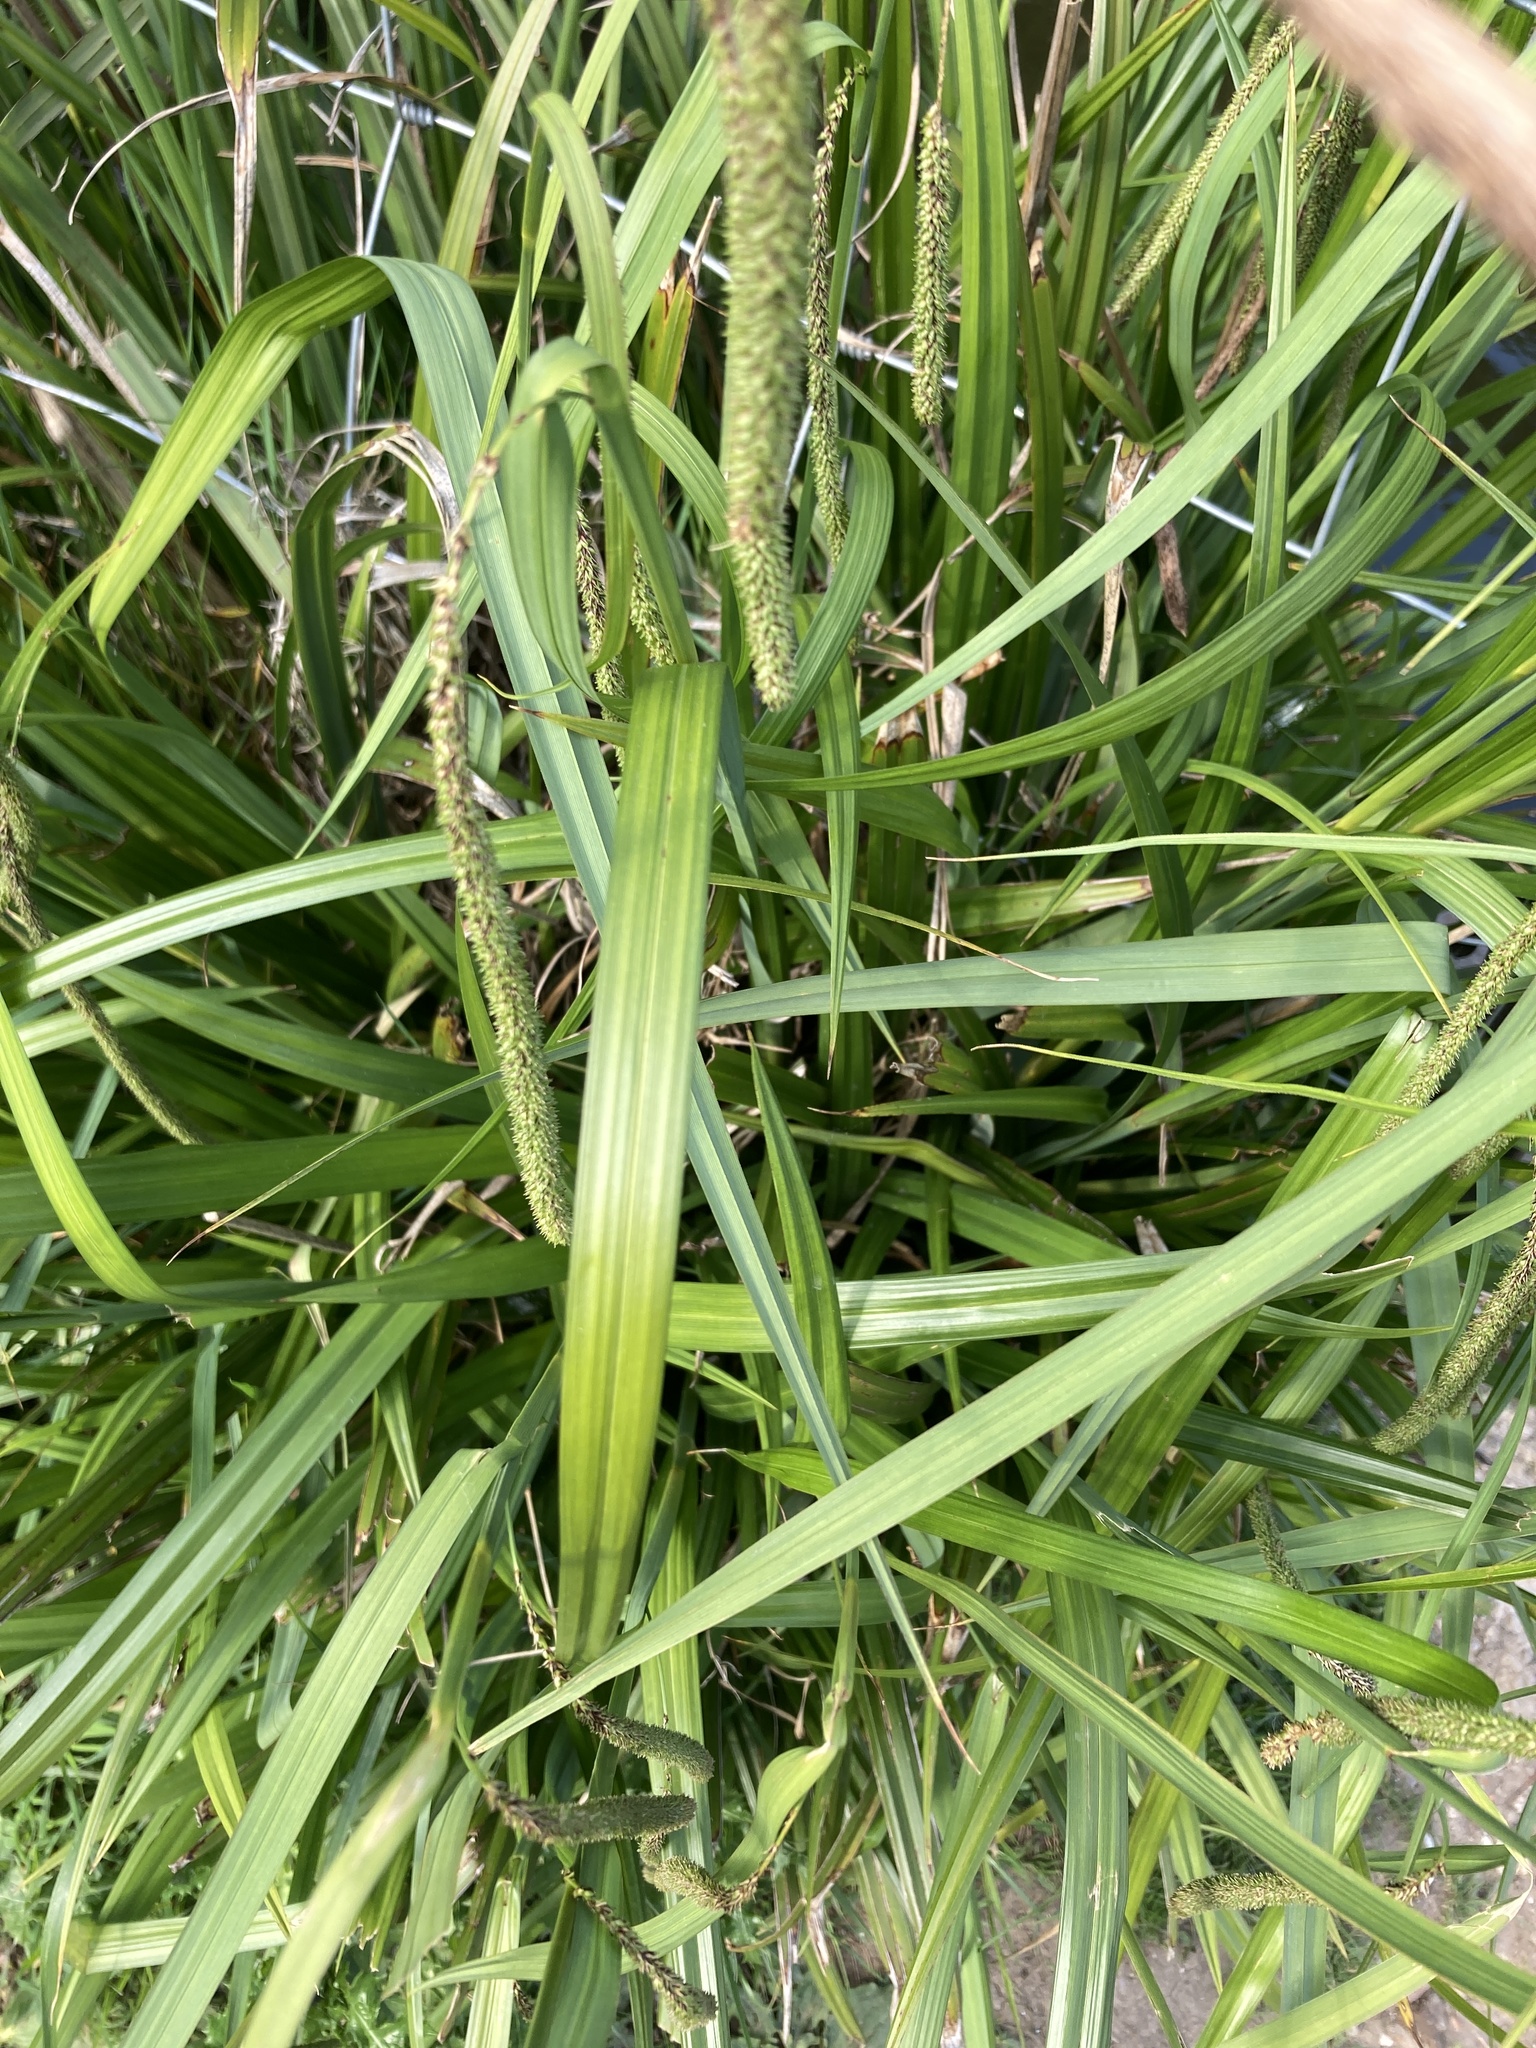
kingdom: Plantae
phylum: Tracheophyta
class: Liliopsida
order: Poales
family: Cyperaceae
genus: Carex
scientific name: Carex pendula
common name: Pendulous sedge
